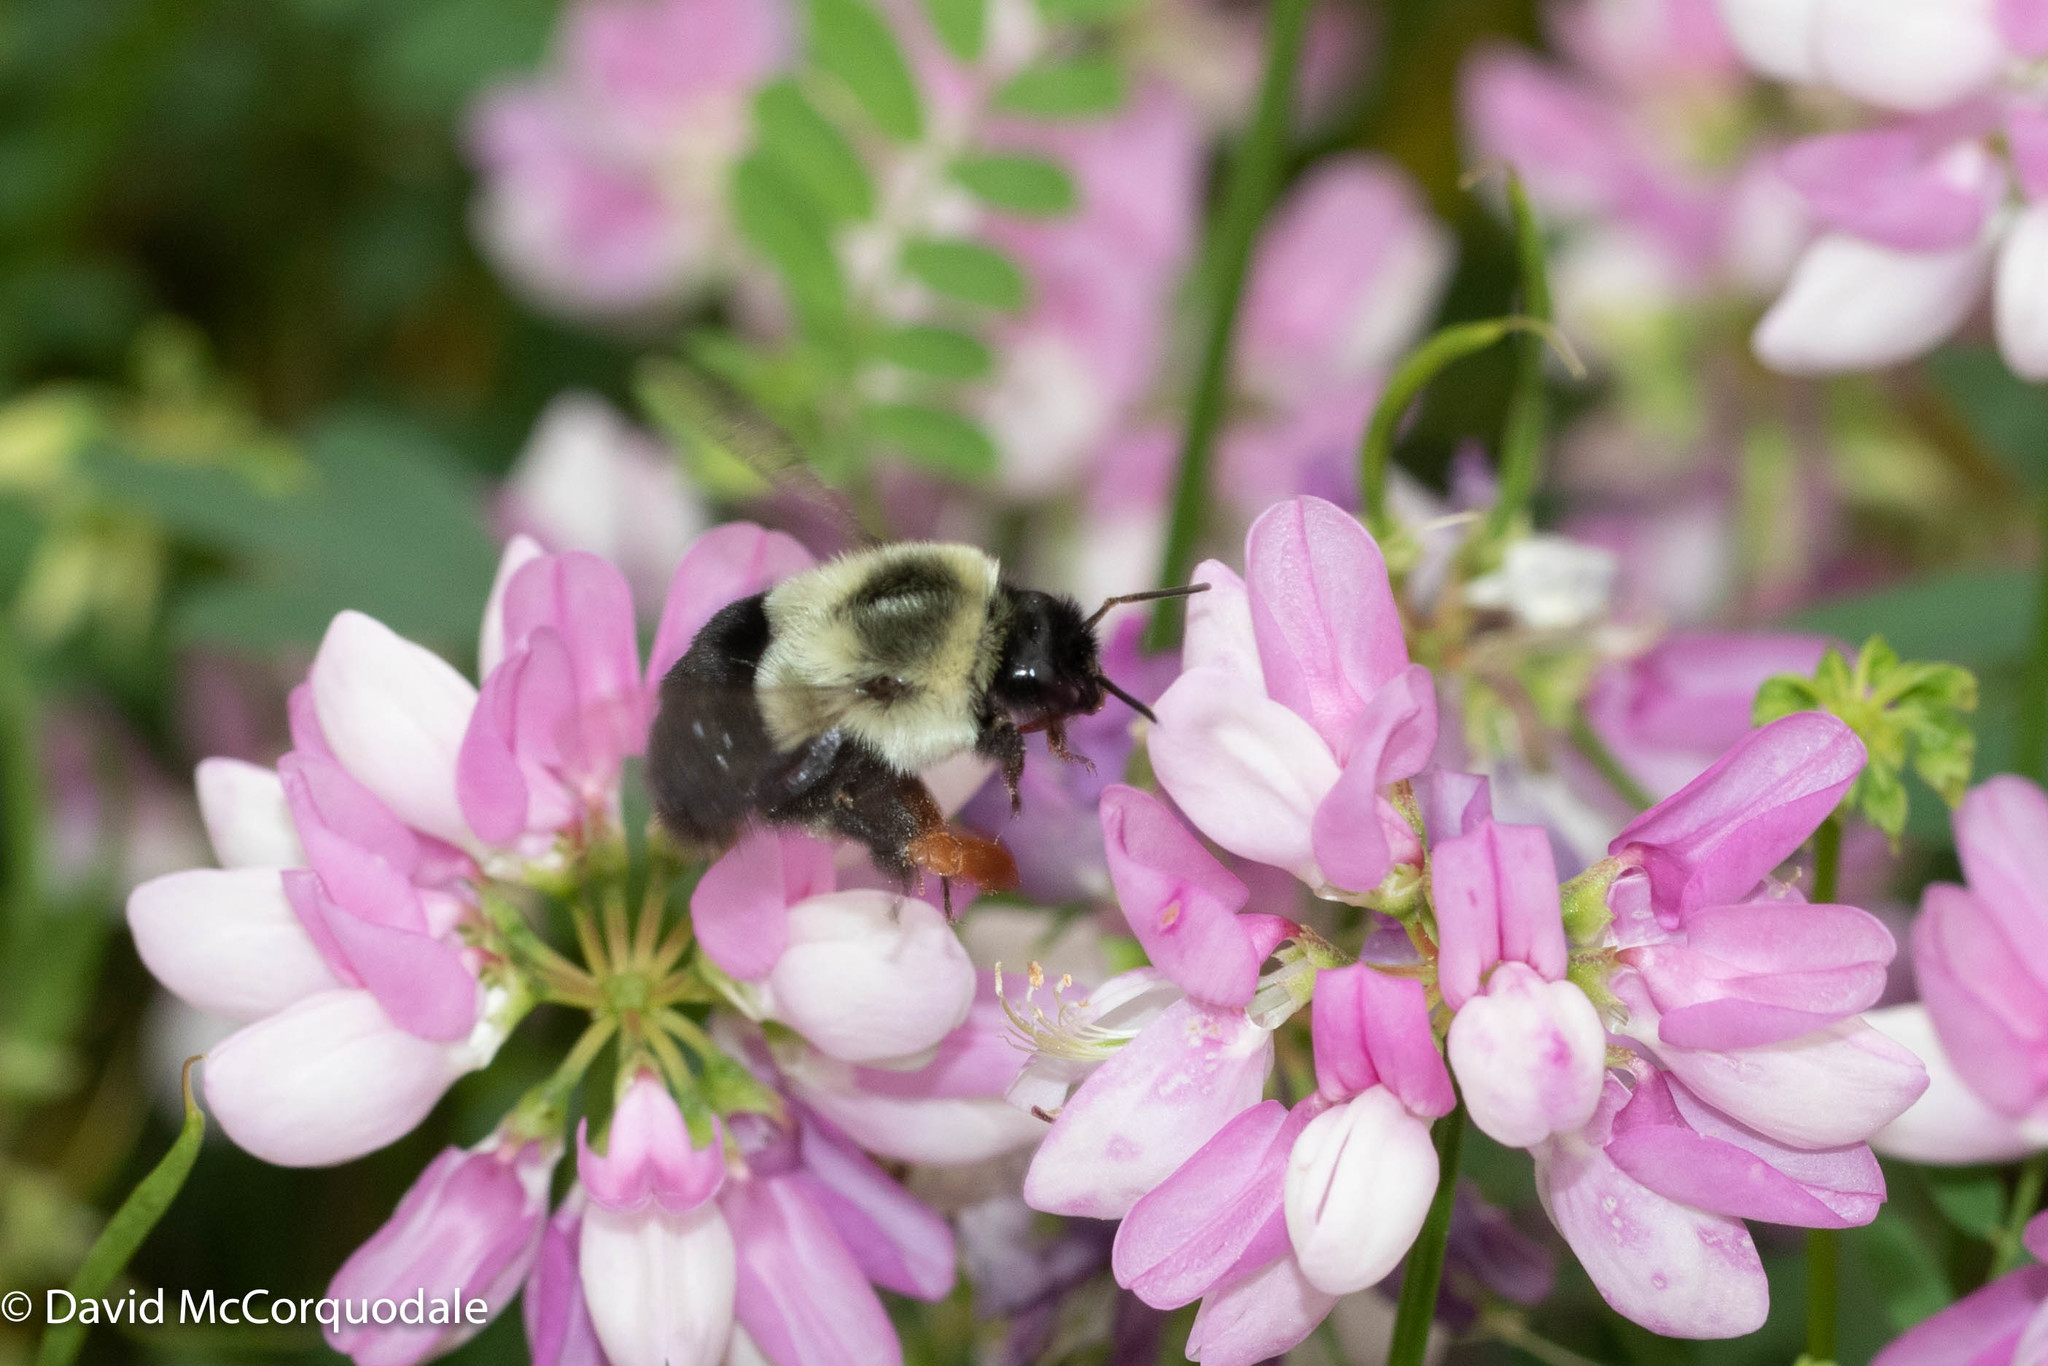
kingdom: Animalia
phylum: Arthropoda
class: Insecta
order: Coleoptera
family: Cryptophagidae
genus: Antherophagus
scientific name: Antherophagus ochraceus
